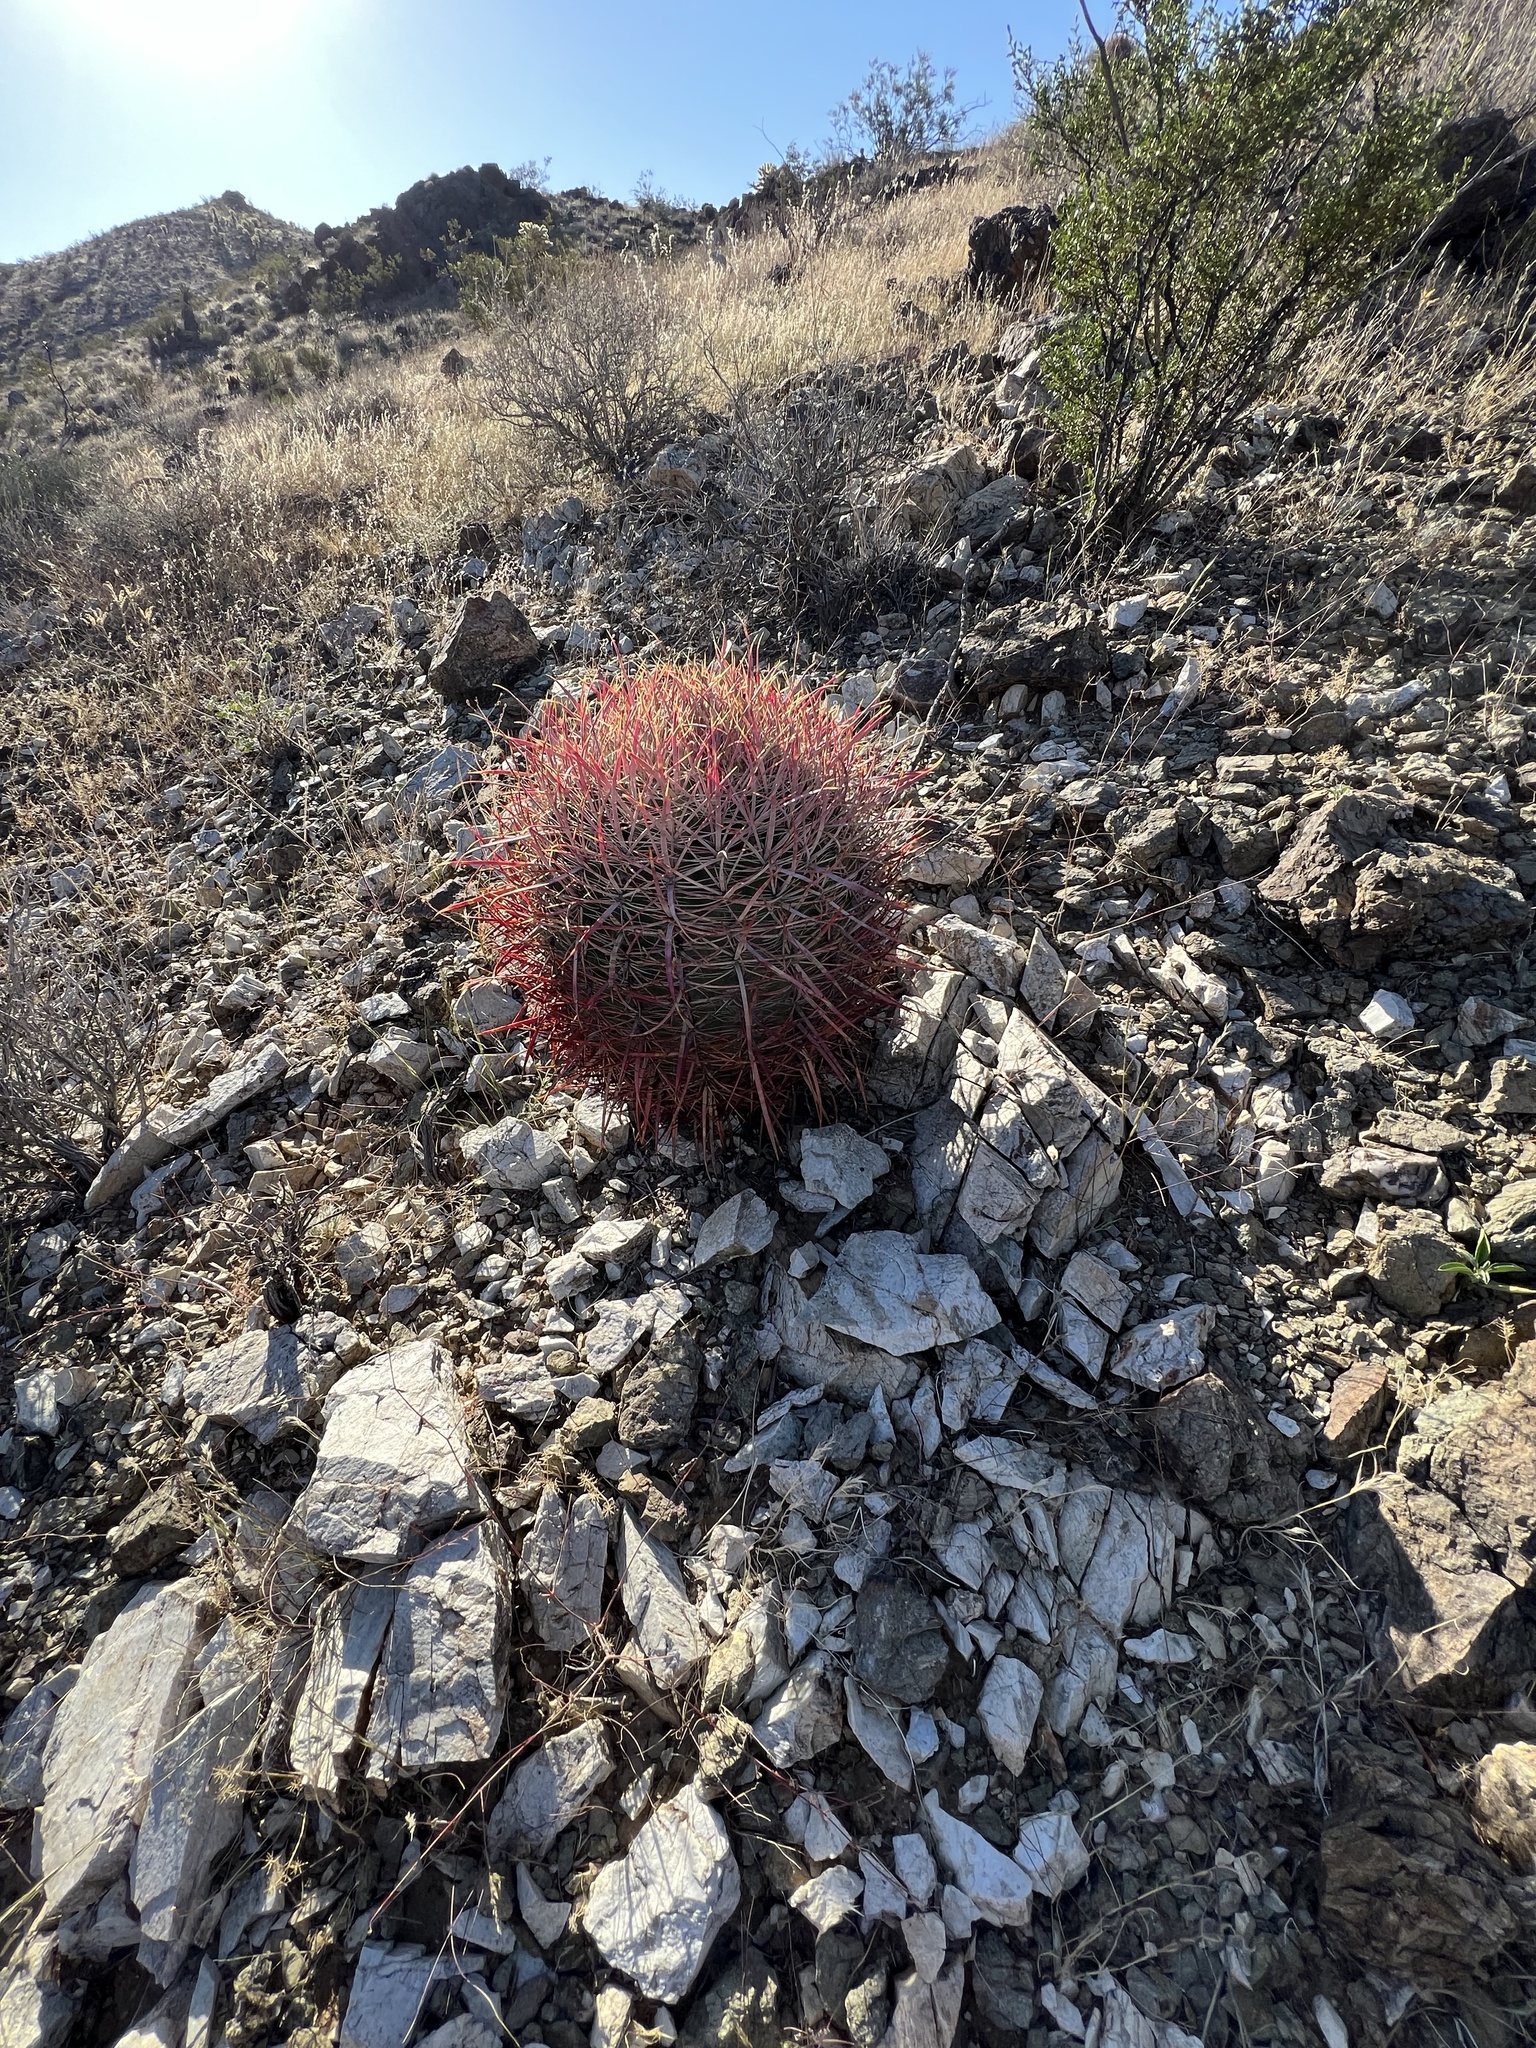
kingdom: Plantae
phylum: Tracheophyta
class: Magnoliopsida
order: Caryophyllales
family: Cactaceae
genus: Ferocactus
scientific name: Ferocactus cylindraceus
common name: California barrel cactus
